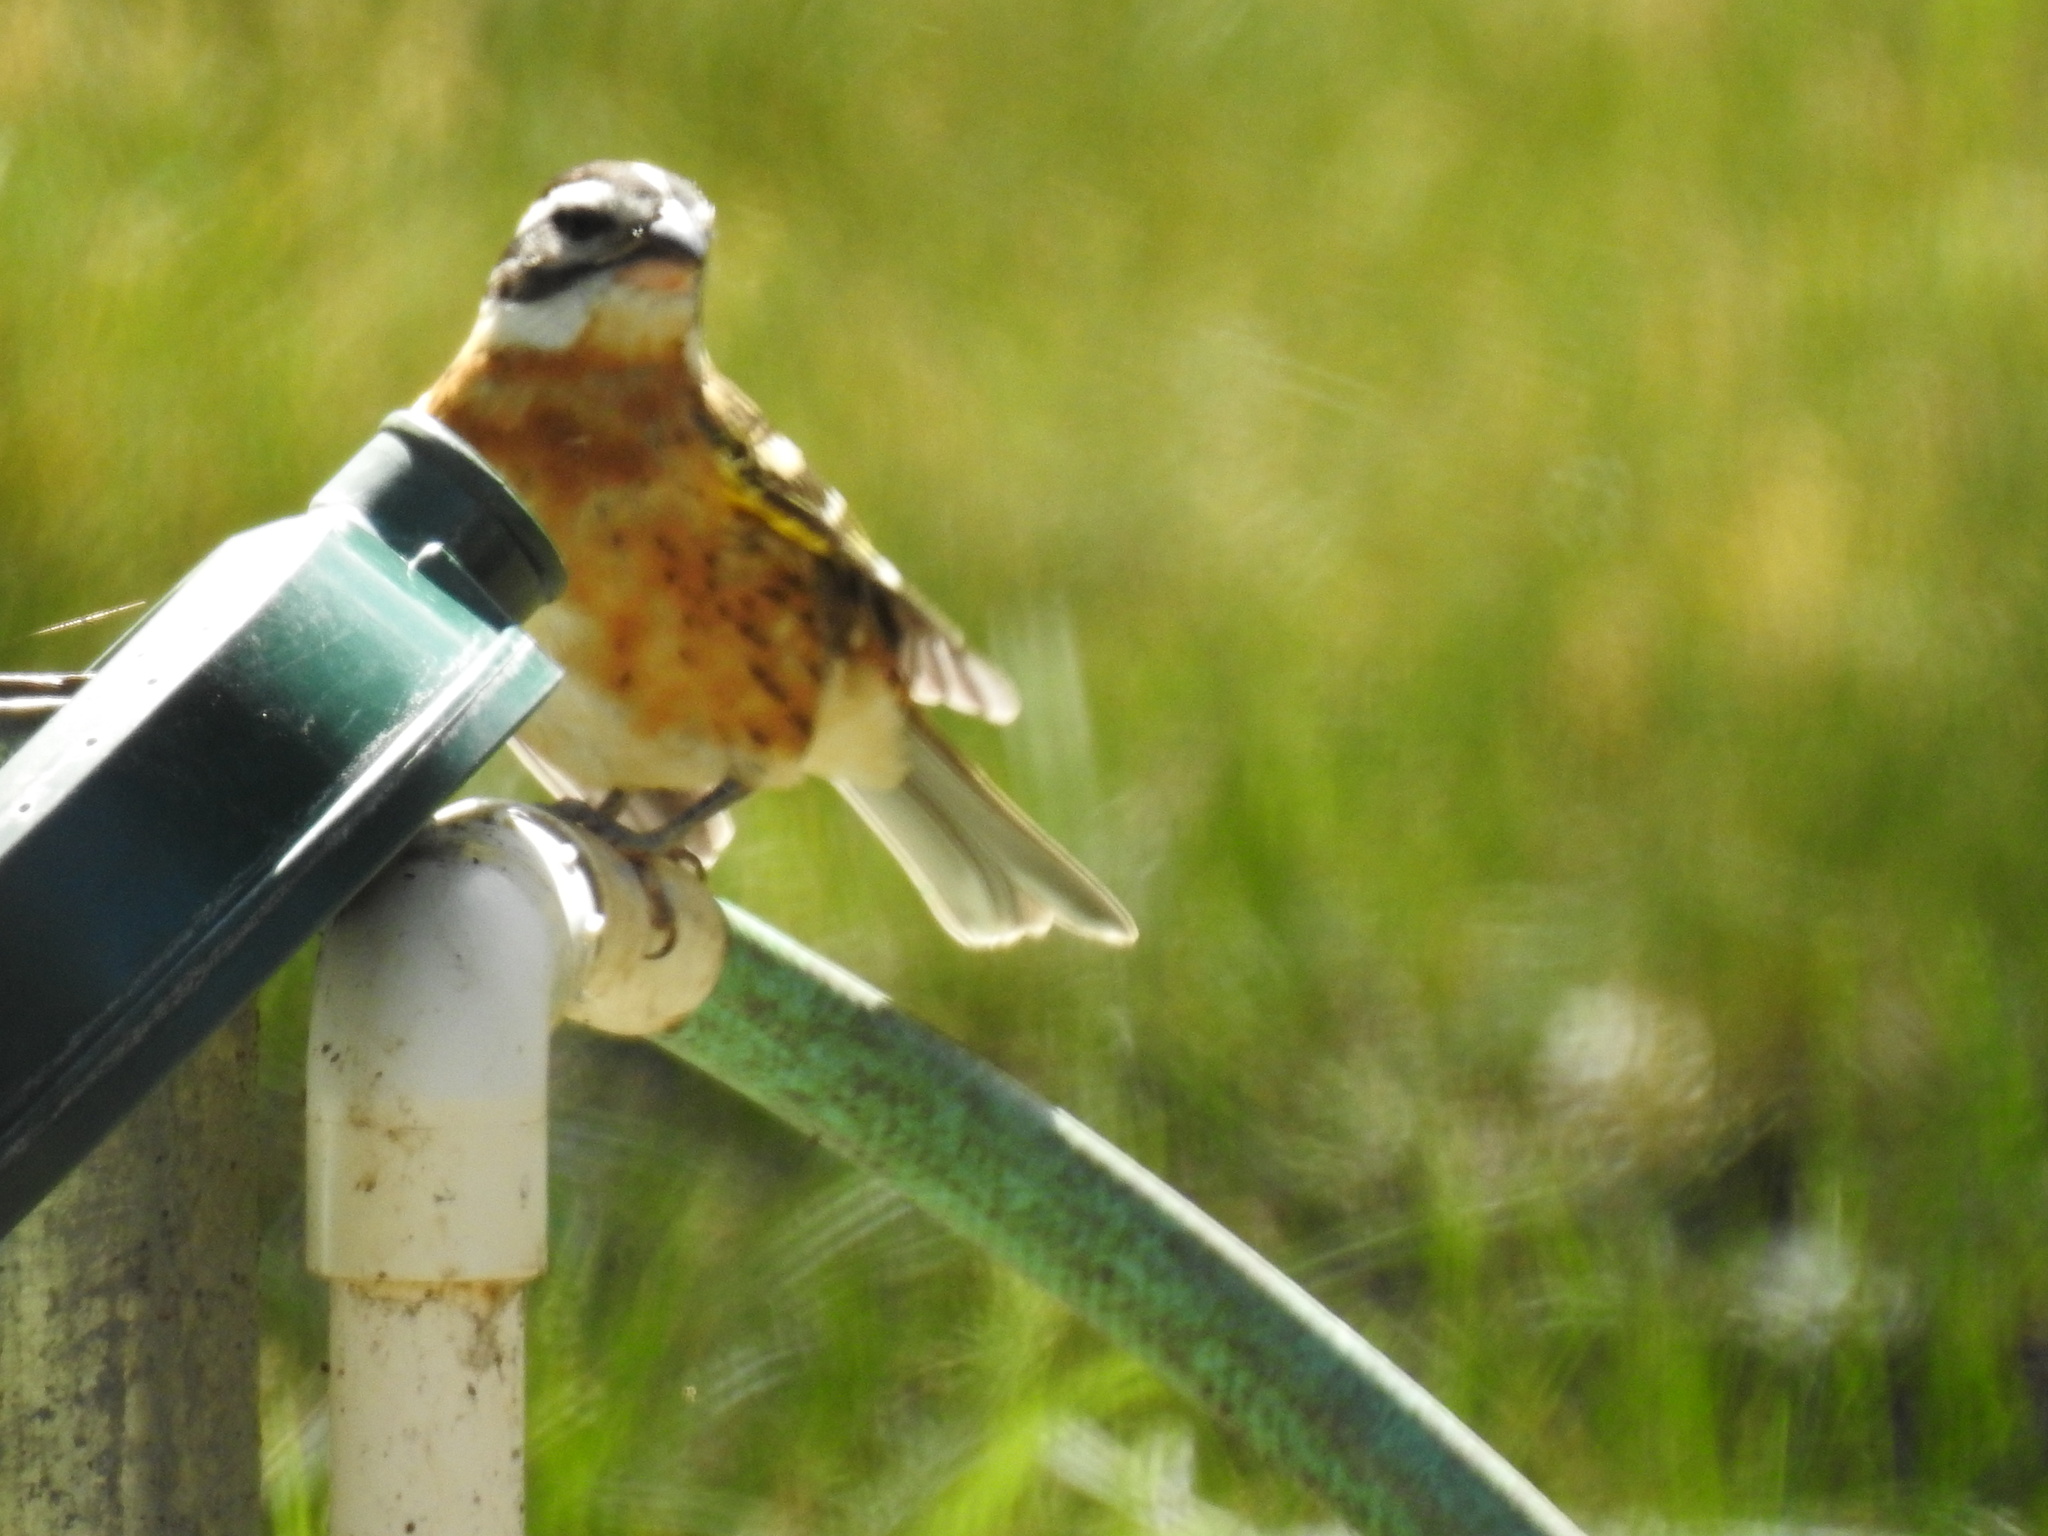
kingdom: Animalia
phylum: Chordata
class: Aves
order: Passeriformes
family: Cardinalidae
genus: Pheucticus
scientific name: Pheucticus melanocephalus
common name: Black-headed grosbeak
